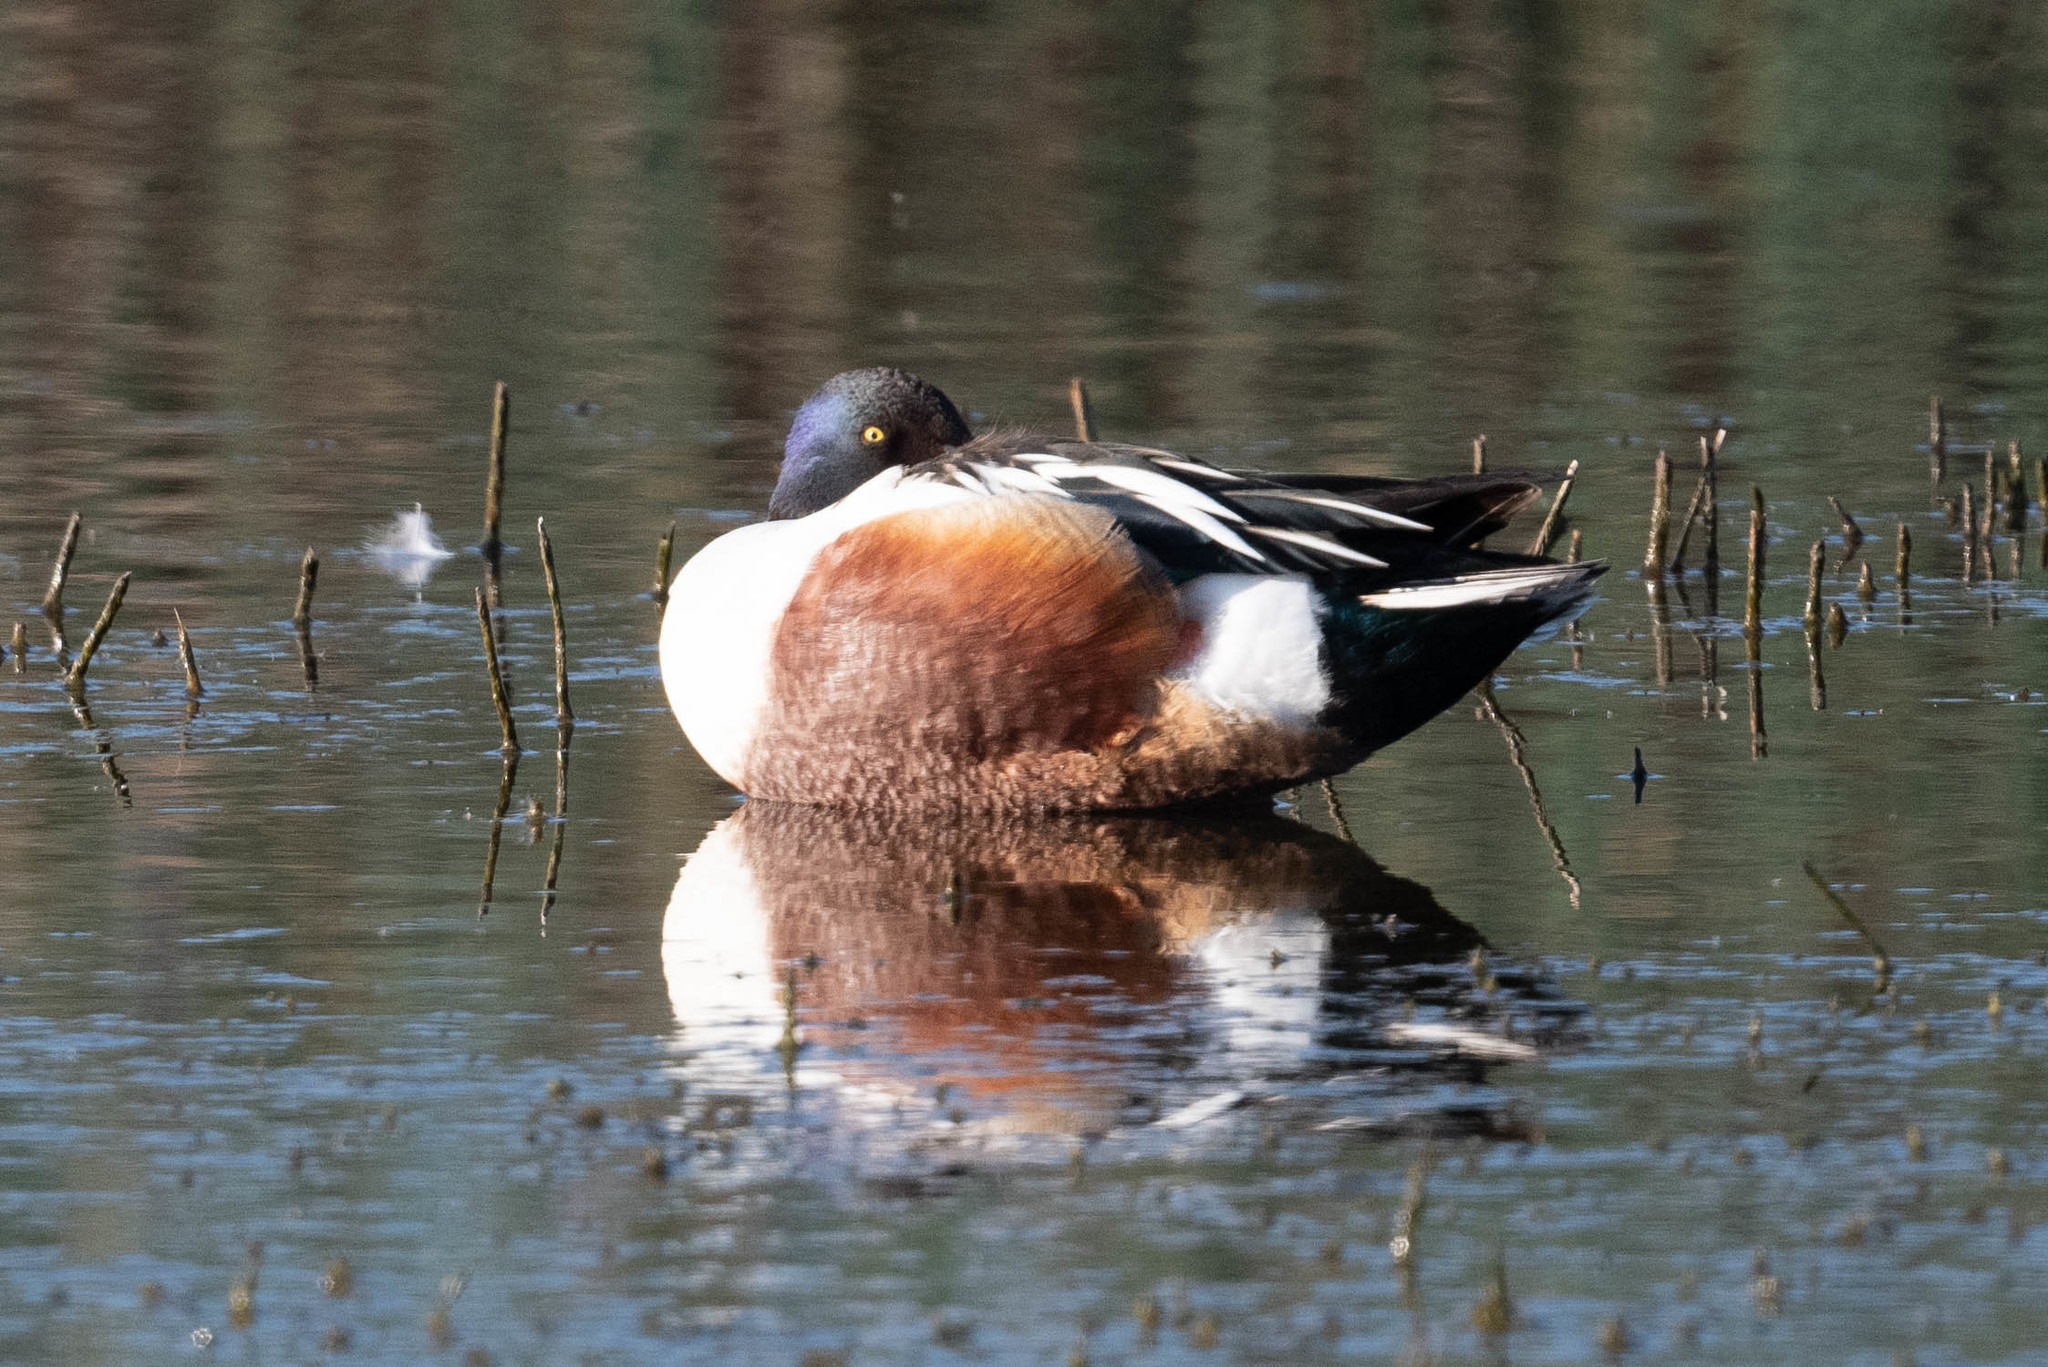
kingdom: Animalia
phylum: Chordata
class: Aves
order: Anseriformes
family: Anatidae
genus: Spatula
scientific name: Spatula clypeata
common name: Northern shoveler
